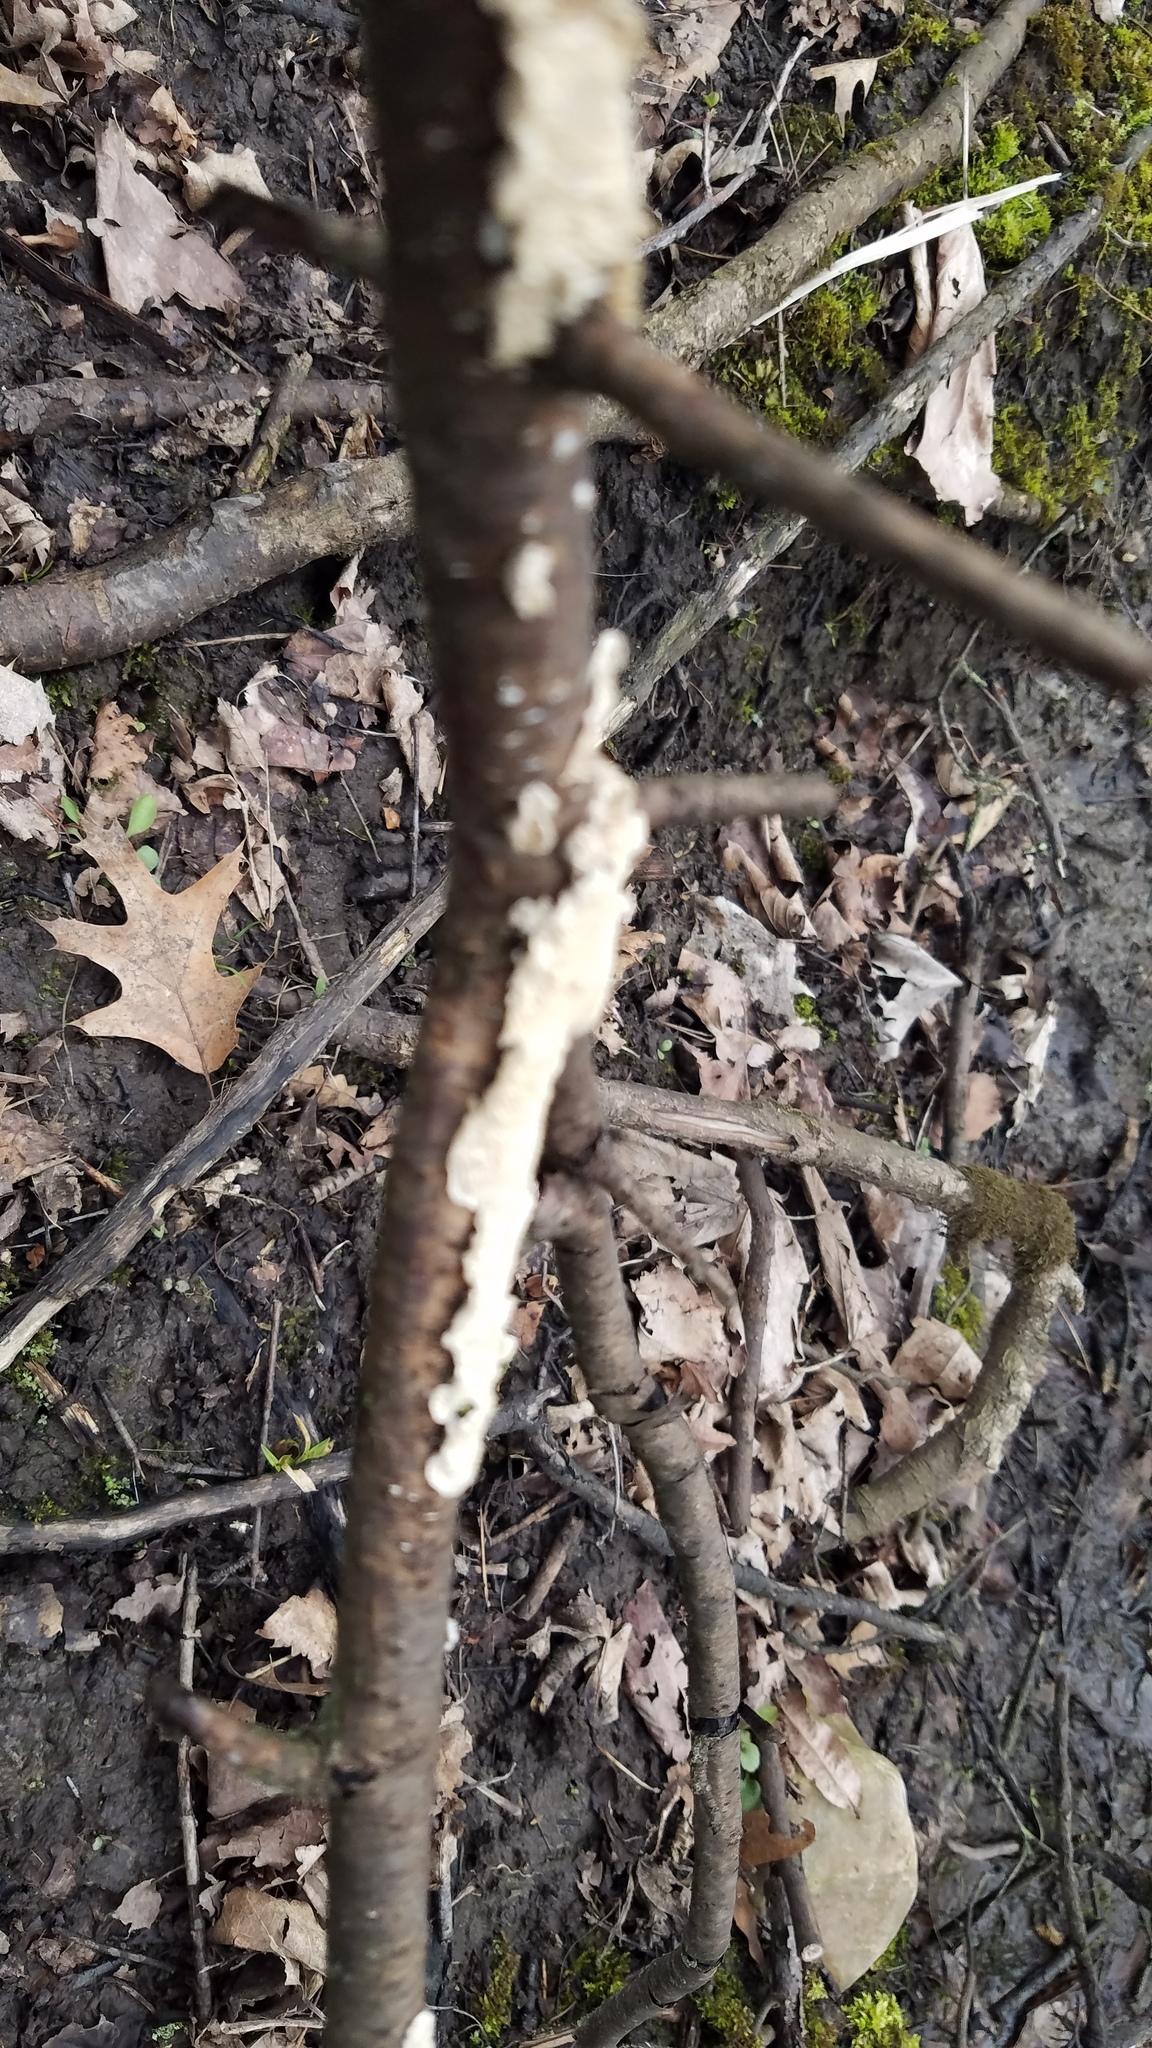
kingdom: Fungi
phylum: Basidiomycota
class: Agaricomycetes
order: Polyporales
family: Irpicaceae
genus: Irpex
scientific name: Irpex lacteus
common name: Milk-white toothed polypore
